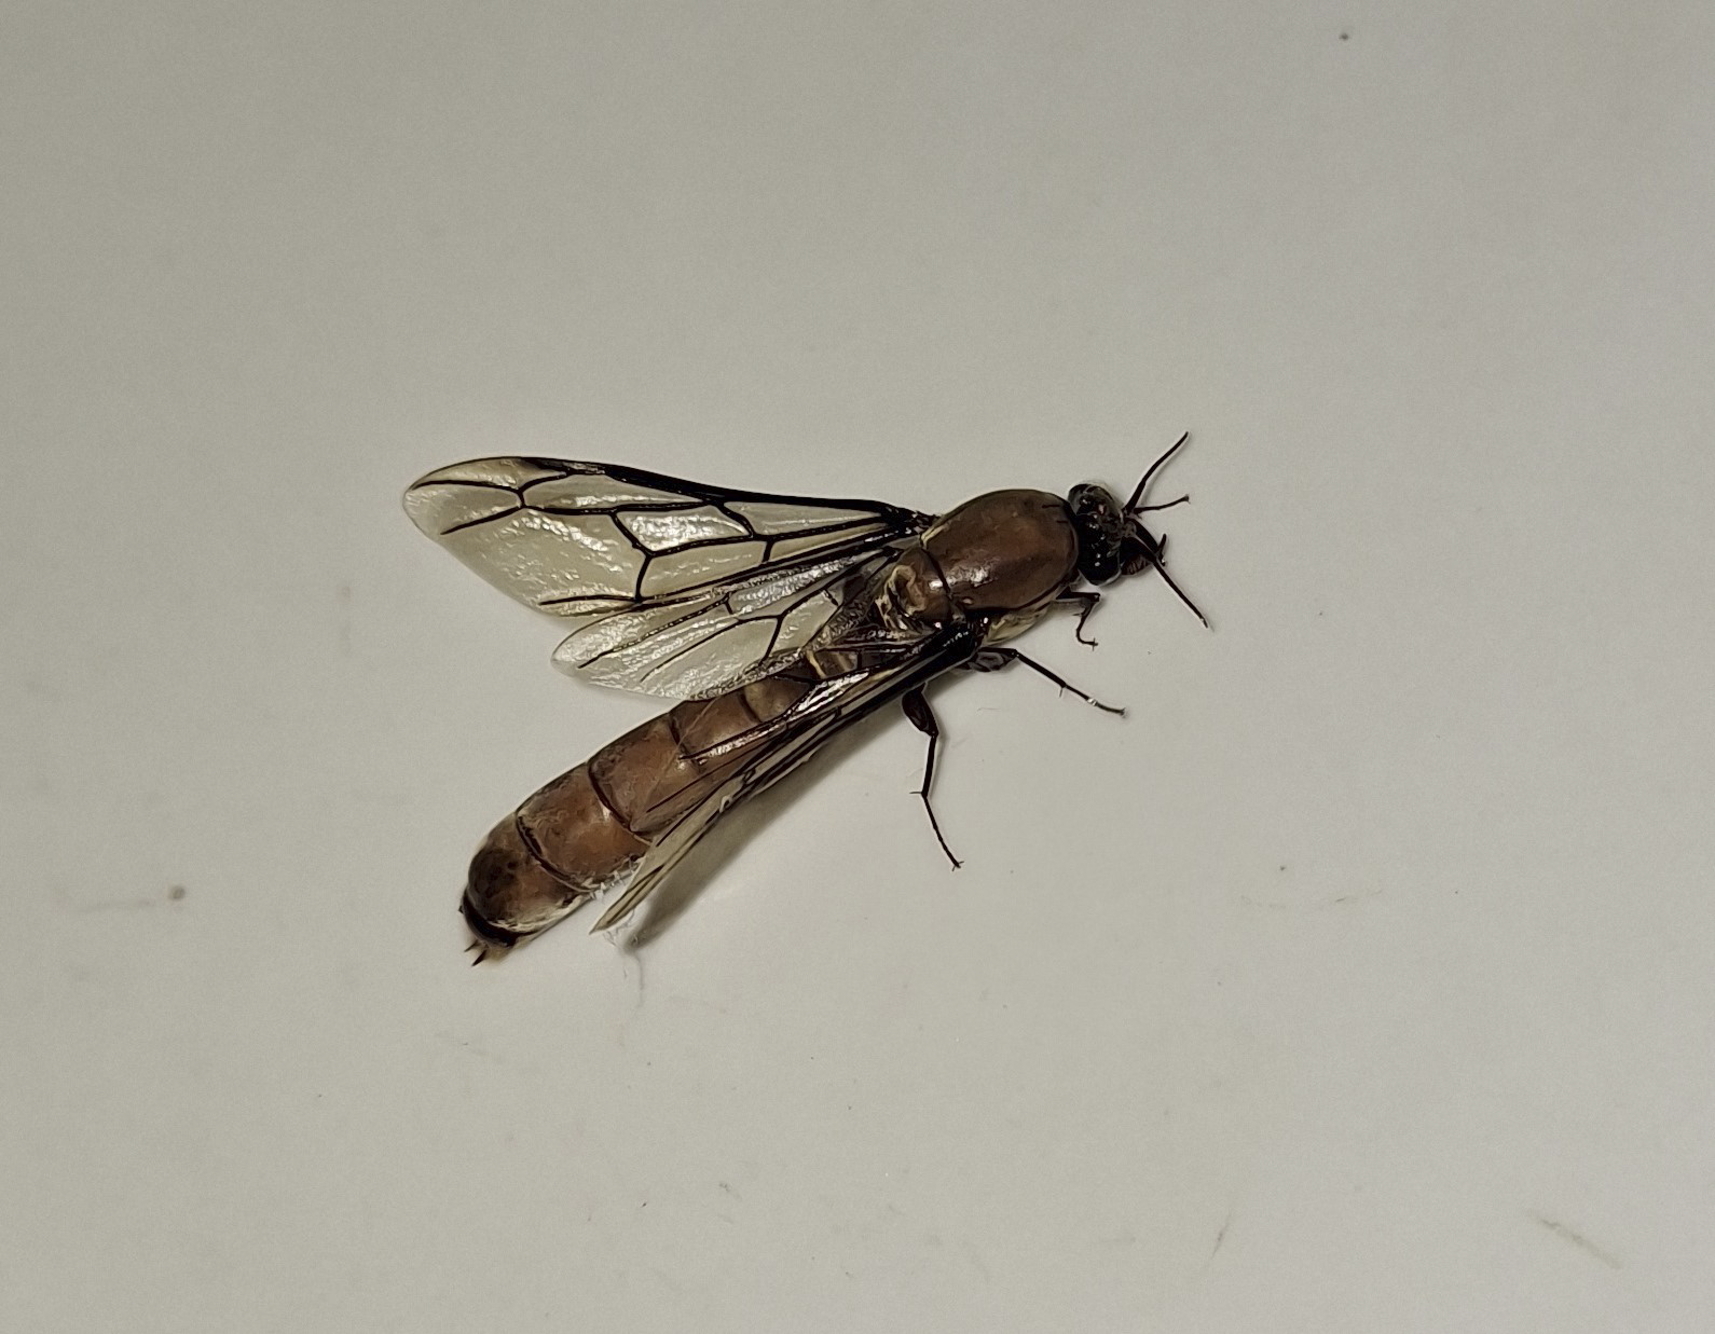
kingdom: Animalia
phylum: Arthropoda
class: Insecta
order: Hymenoptera
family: Formicidae
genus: Dorylus
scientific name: Dorylus helvolus
